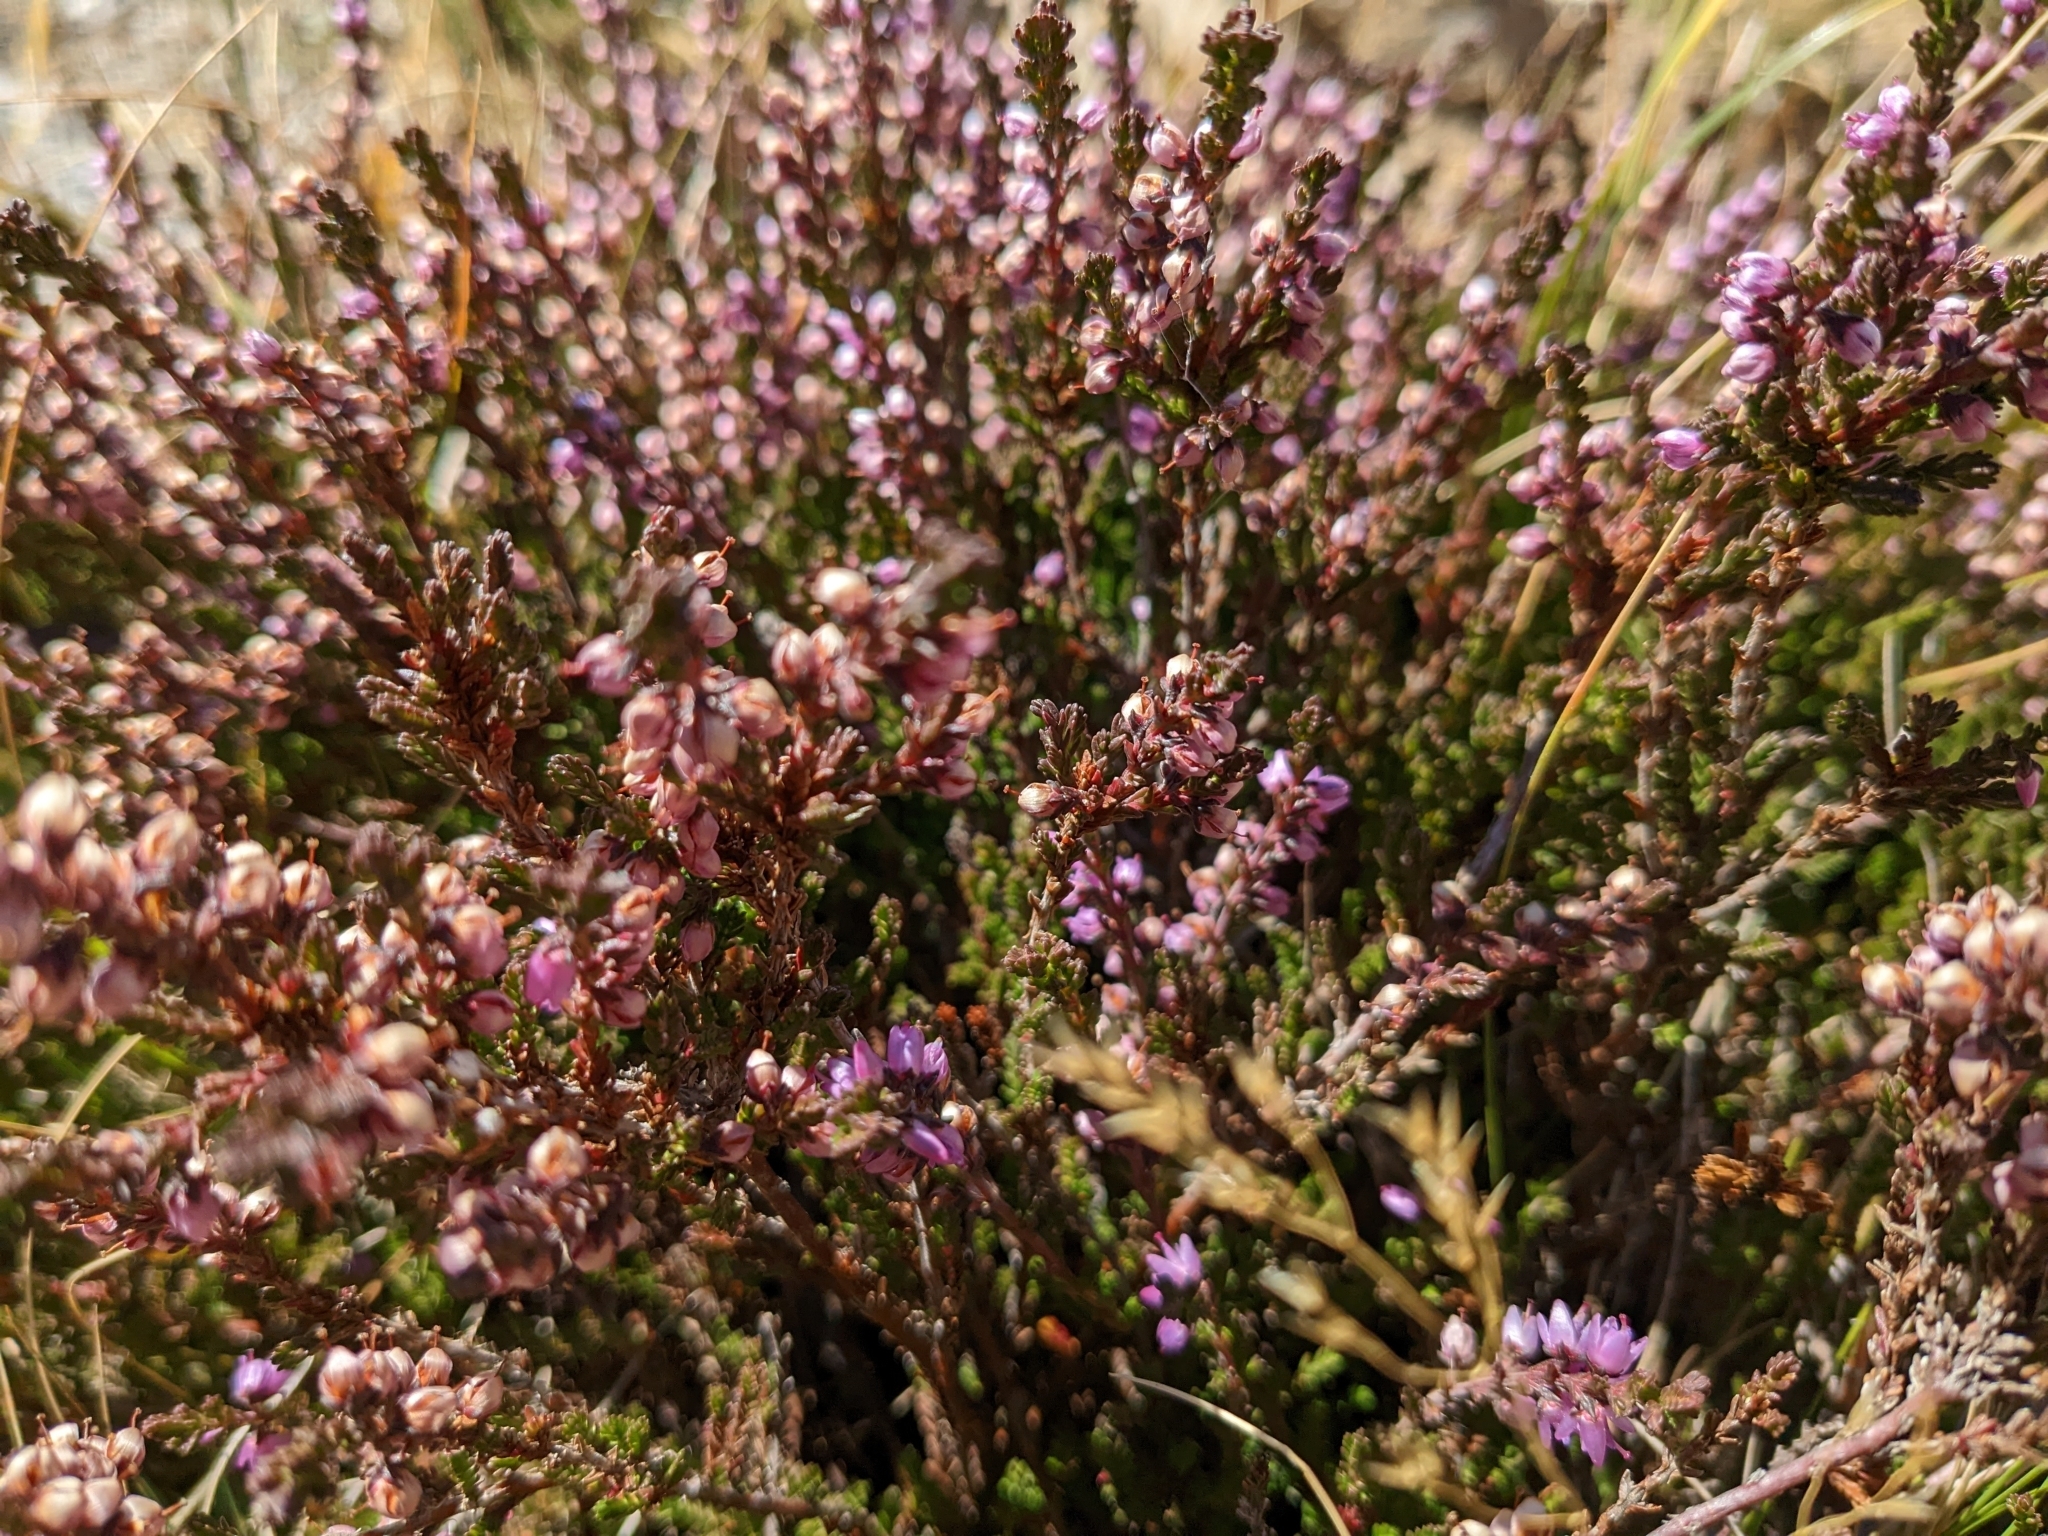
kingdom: Plantae
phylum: Tracheophyta
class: Magnoliopsida
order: Ericales
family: Ericaceae
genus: Calluna
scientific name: Calluna vulgaris
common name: Heather
